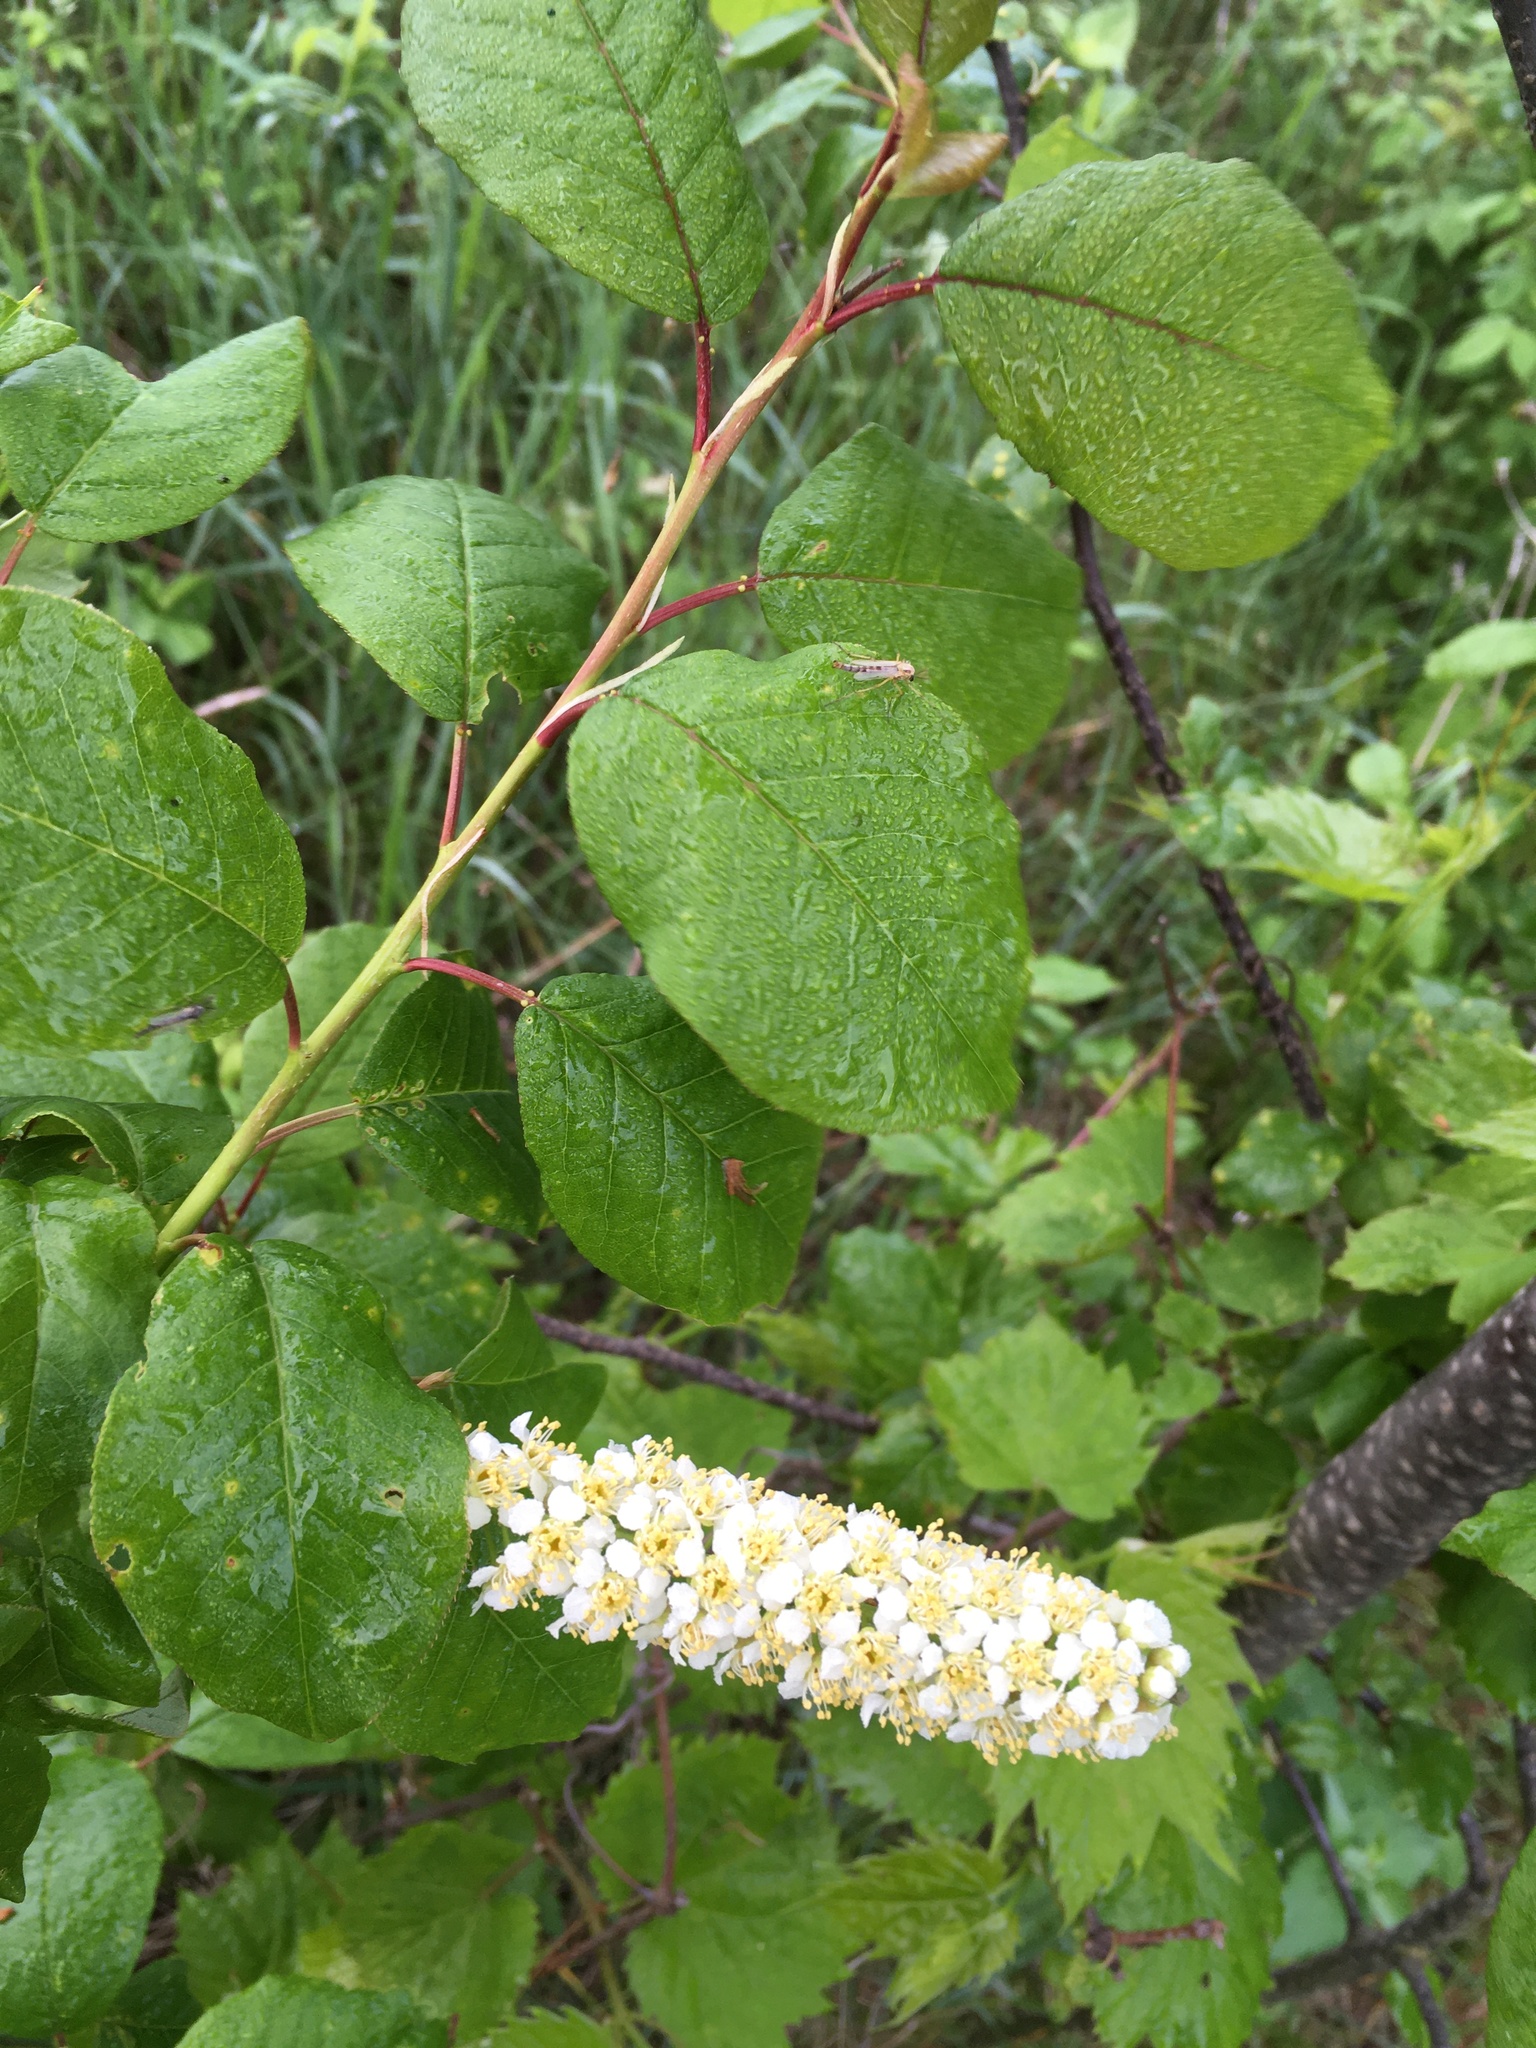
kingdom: Plantae
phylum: Tracheophyta
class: Magnoliopsida
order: Rosales
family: Rosaceae
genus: Prunus
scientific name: Prunus virginiana
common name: Chokecherry
